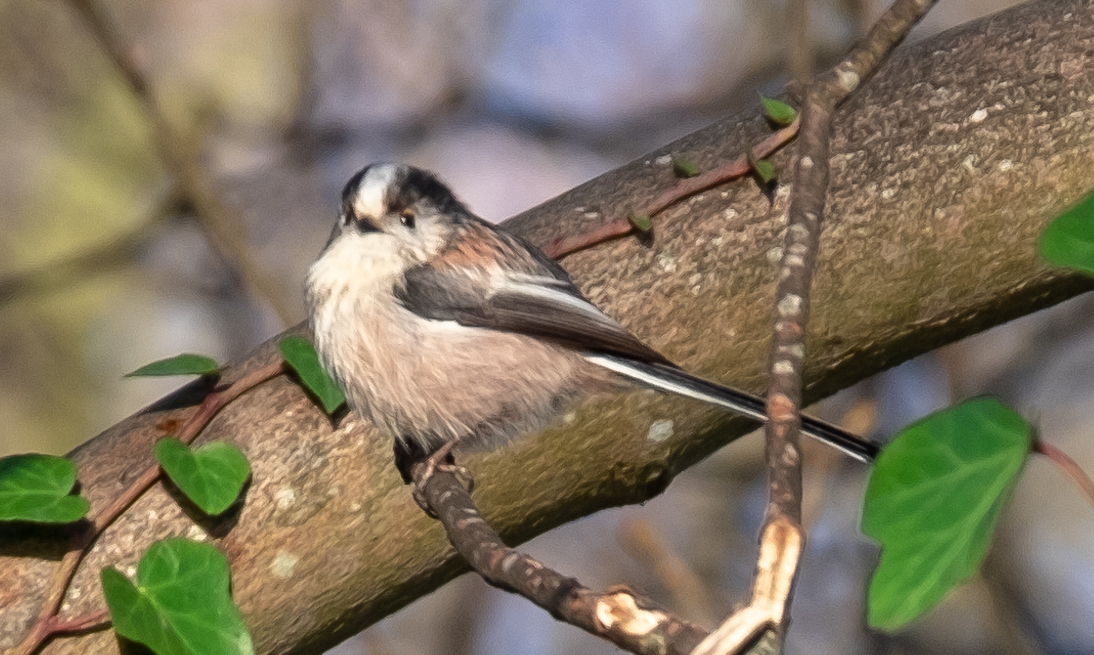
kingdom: Animalia
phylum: Chordata
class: Aves
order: Passeriformes
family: Aegithalidae
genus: Aegithalos
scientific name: Aegithalos caudatus
